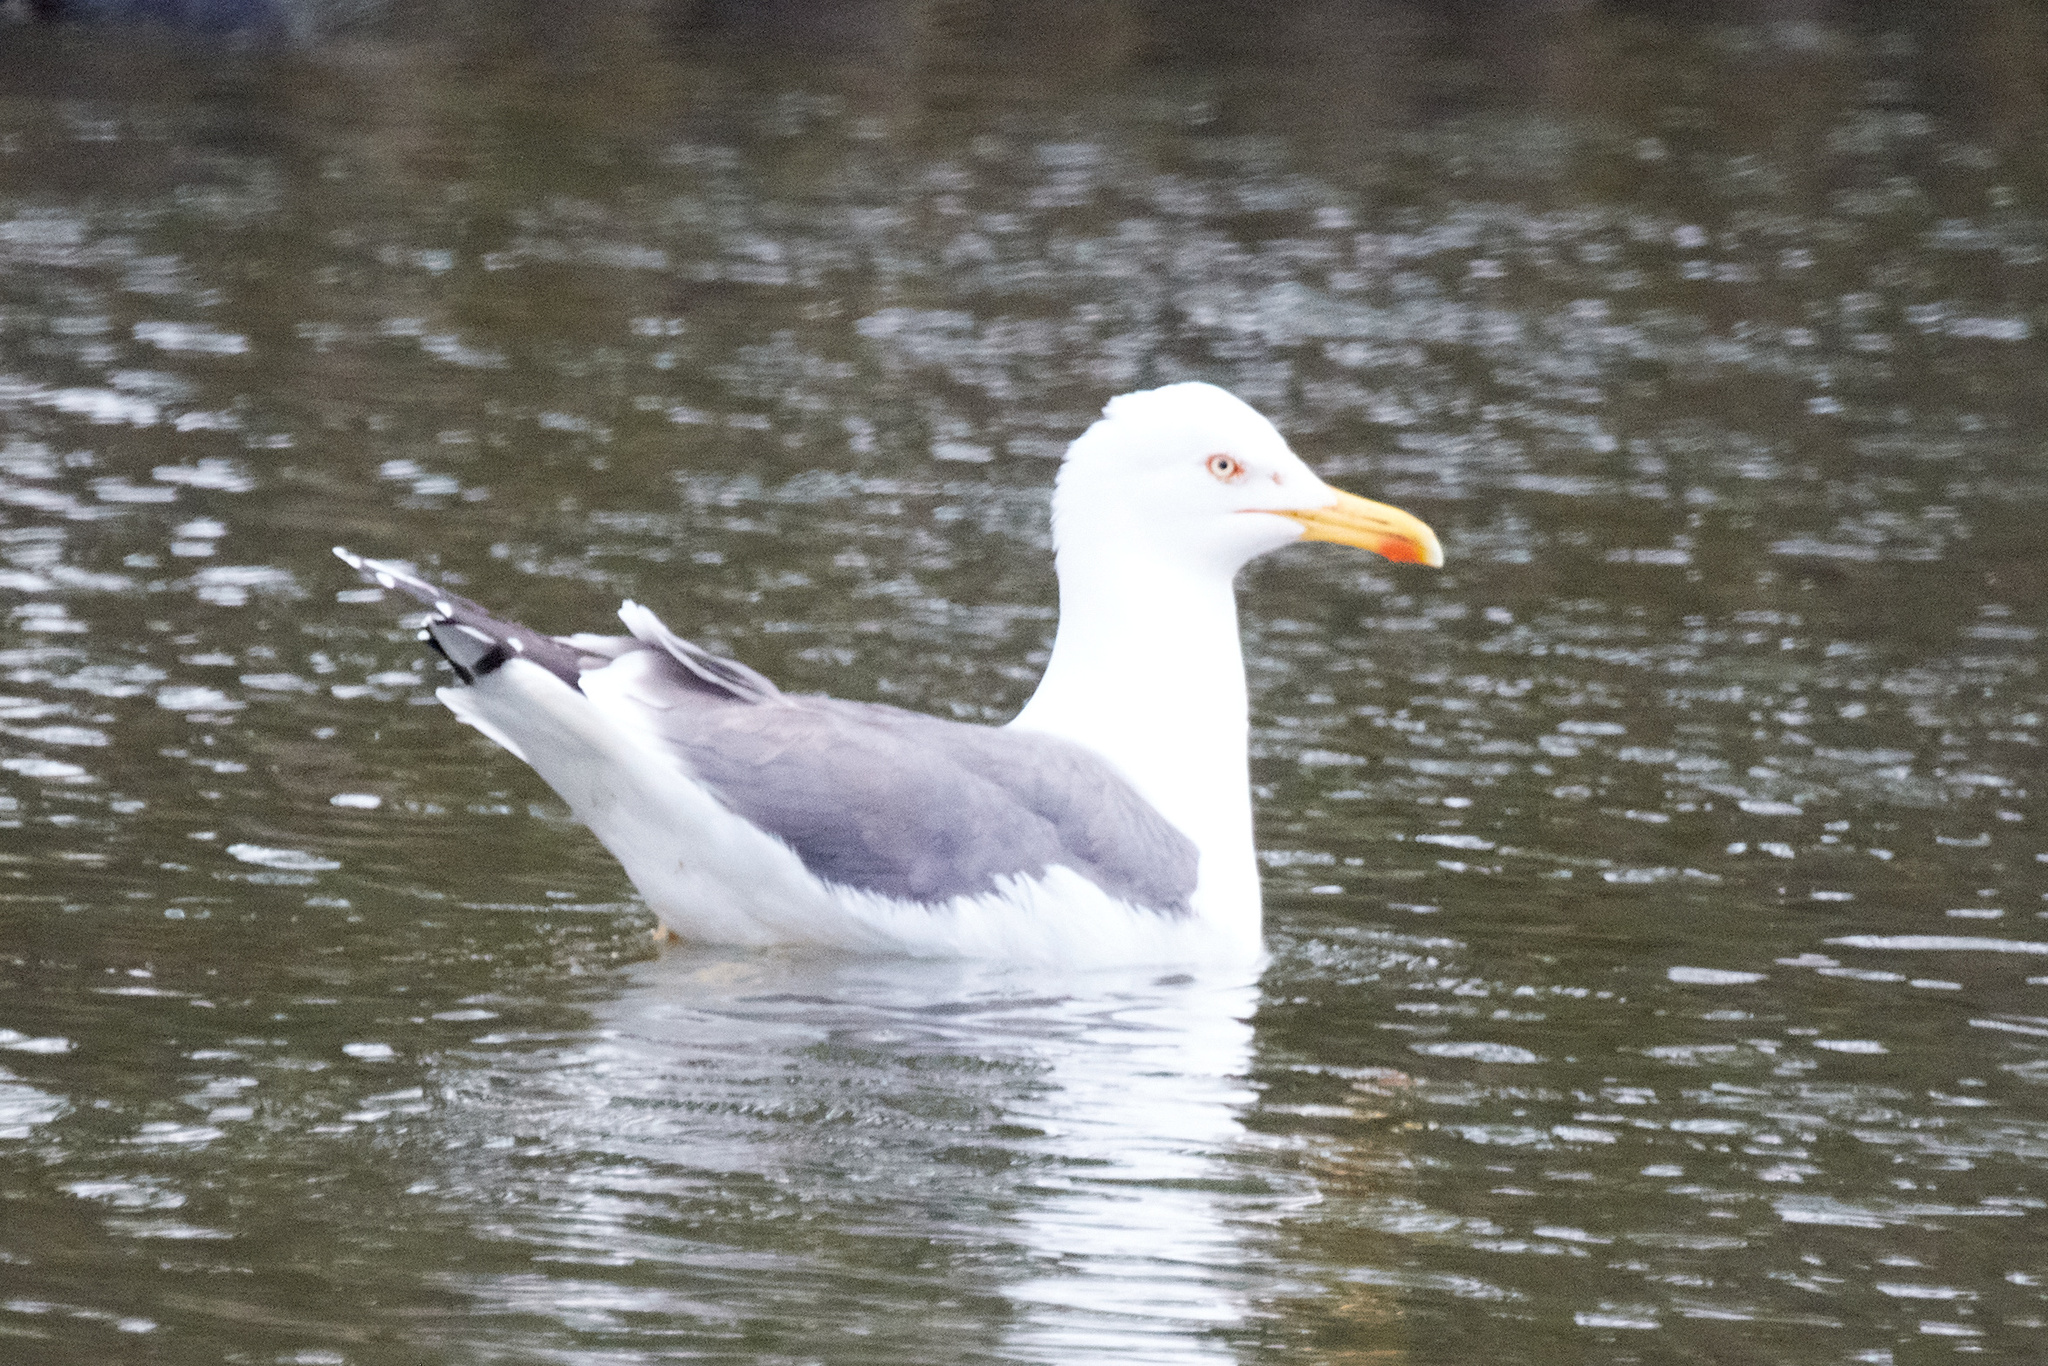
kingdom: Animalia
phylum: Chordata
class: Aves
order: Charadriiformes
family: Laridae
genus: Larus
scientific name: Larus marinus
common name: Great black-backed gull
